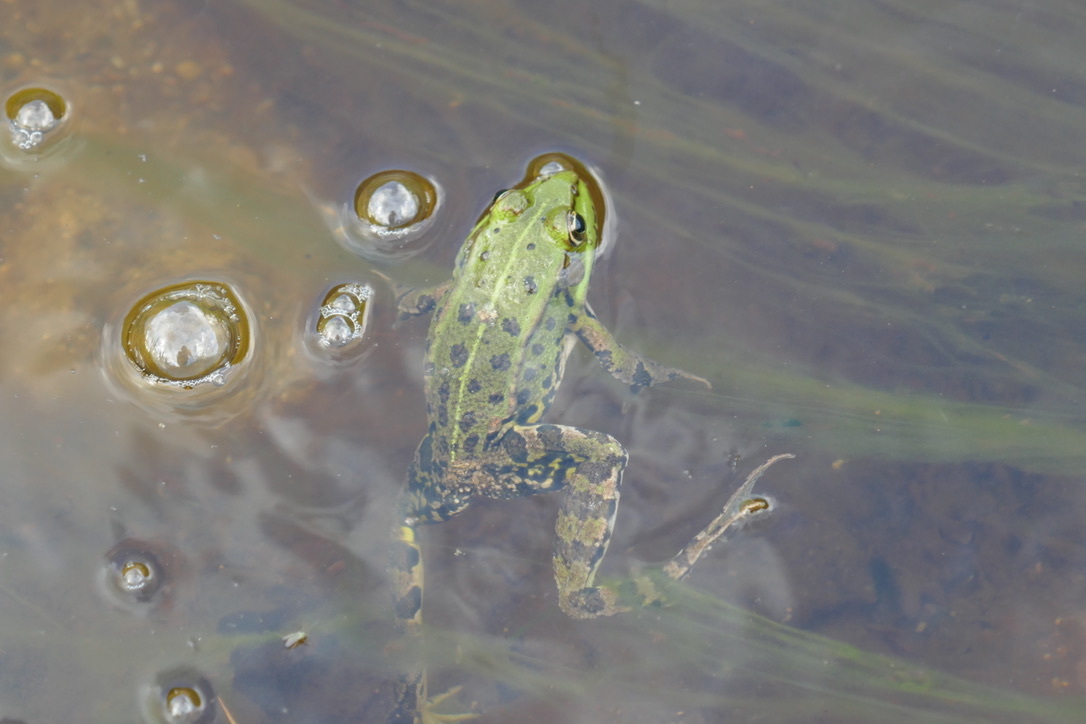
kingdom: Animalia
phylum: Chordata
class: Amphibia
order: Anura
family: Ranidae
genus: Pelophylax
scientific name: Pelophylax
